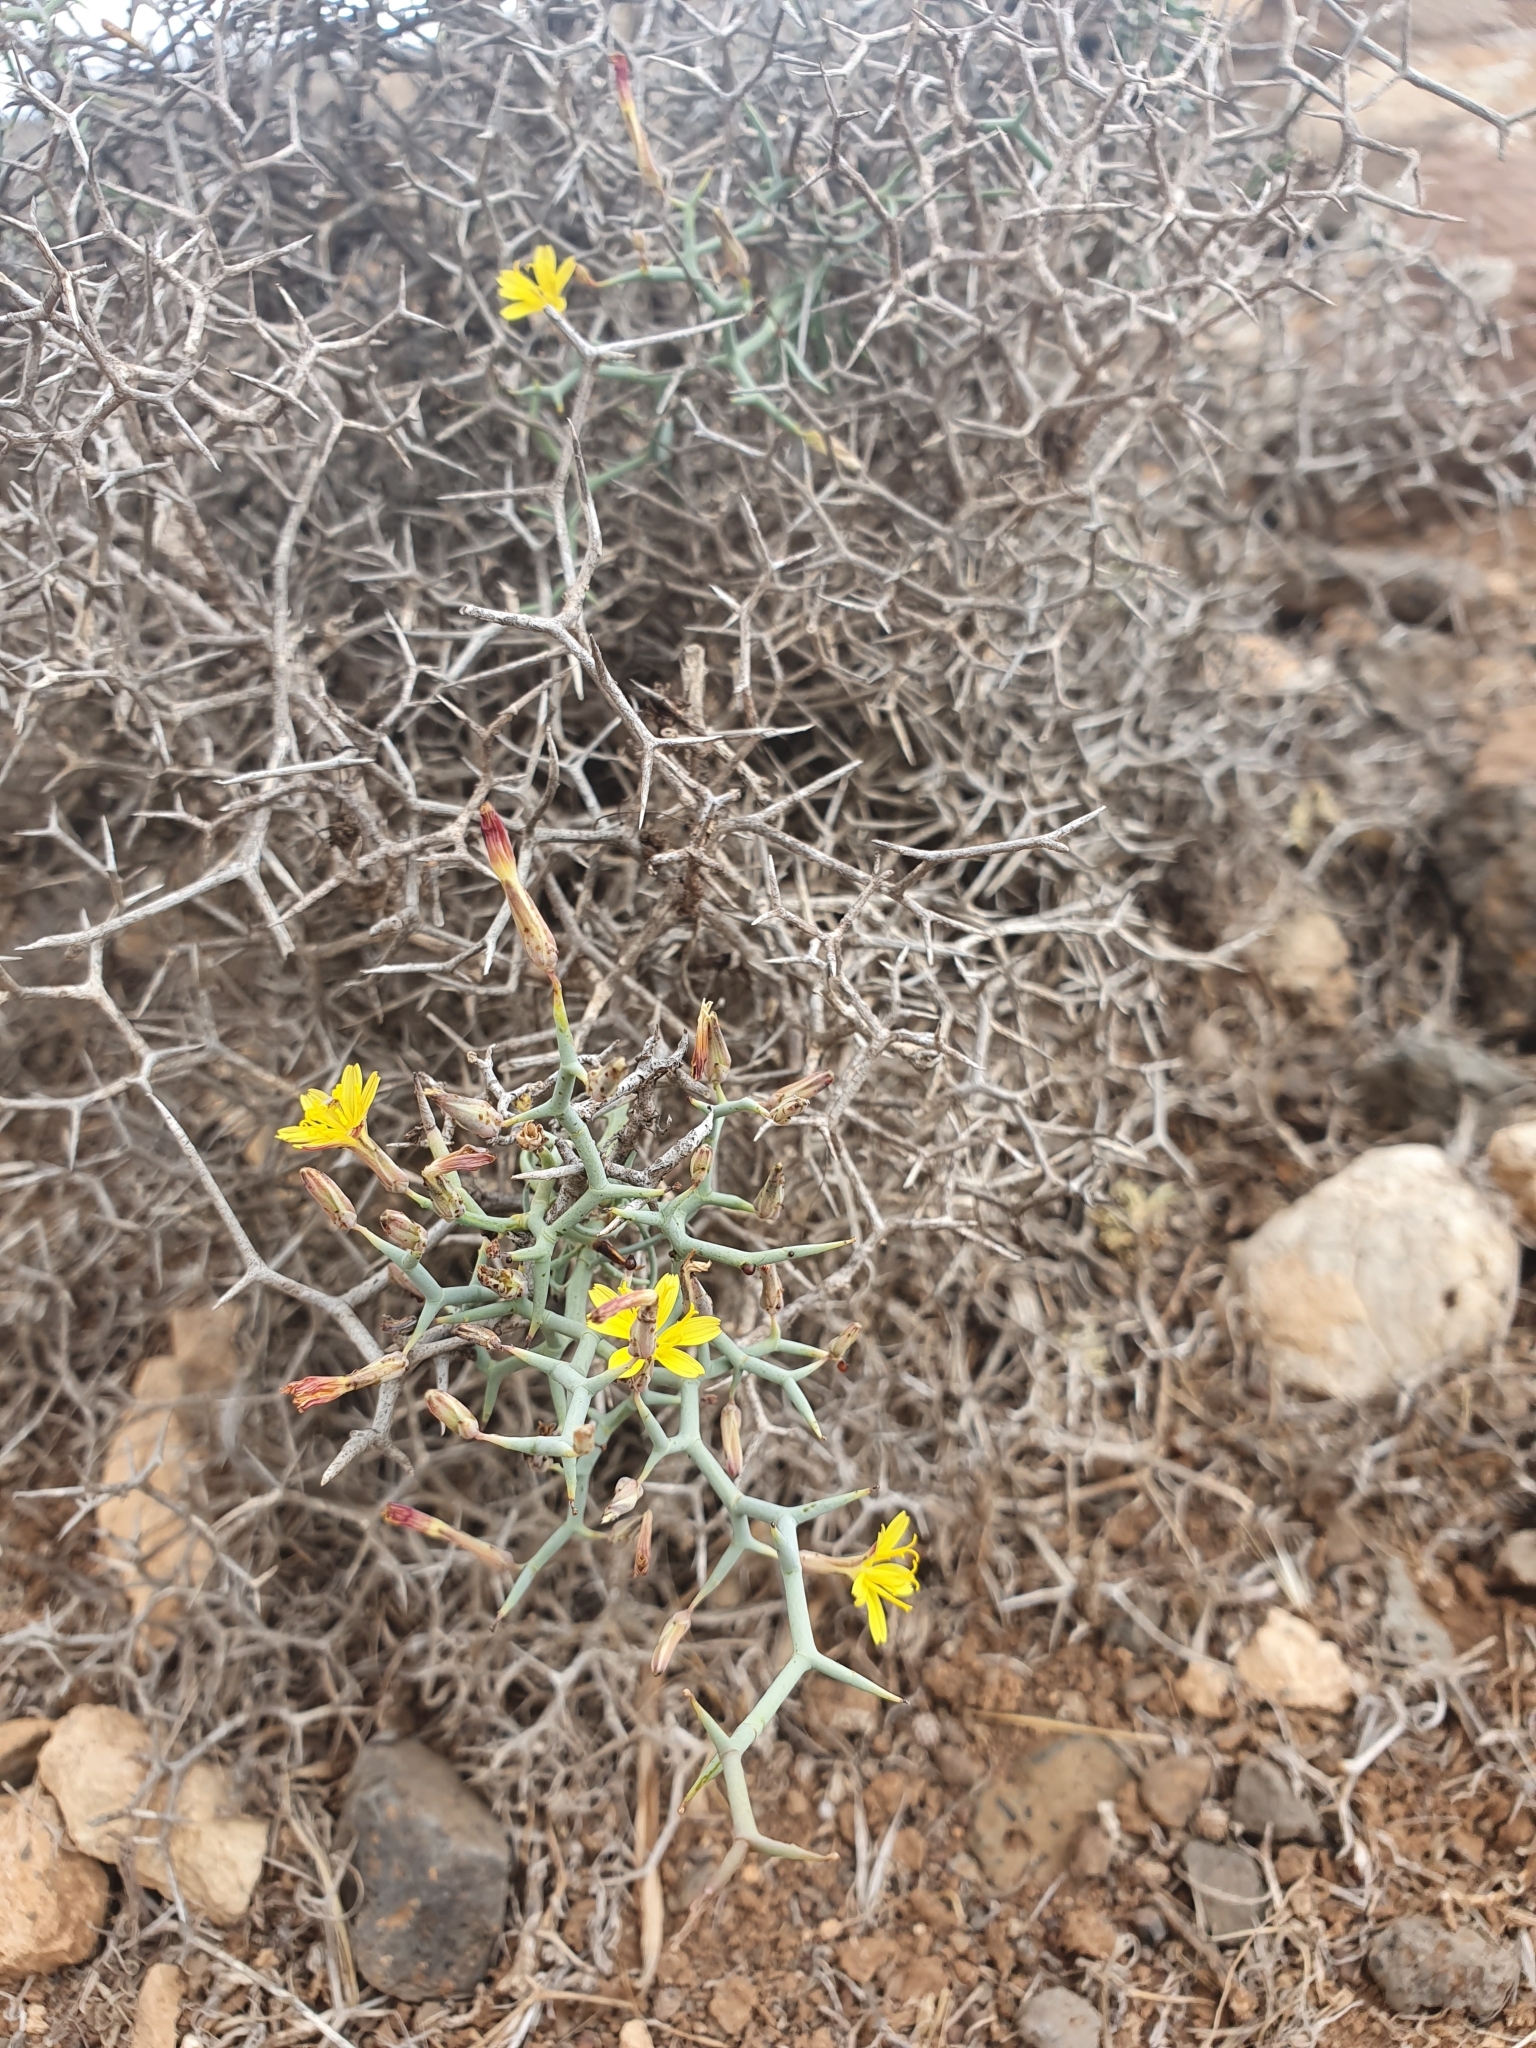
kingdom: Plantae
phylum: Tracheophyta
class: Magnoliopsida
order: Asterales
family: Asteraceae
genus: Launaea
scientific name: Launaea arborescens
